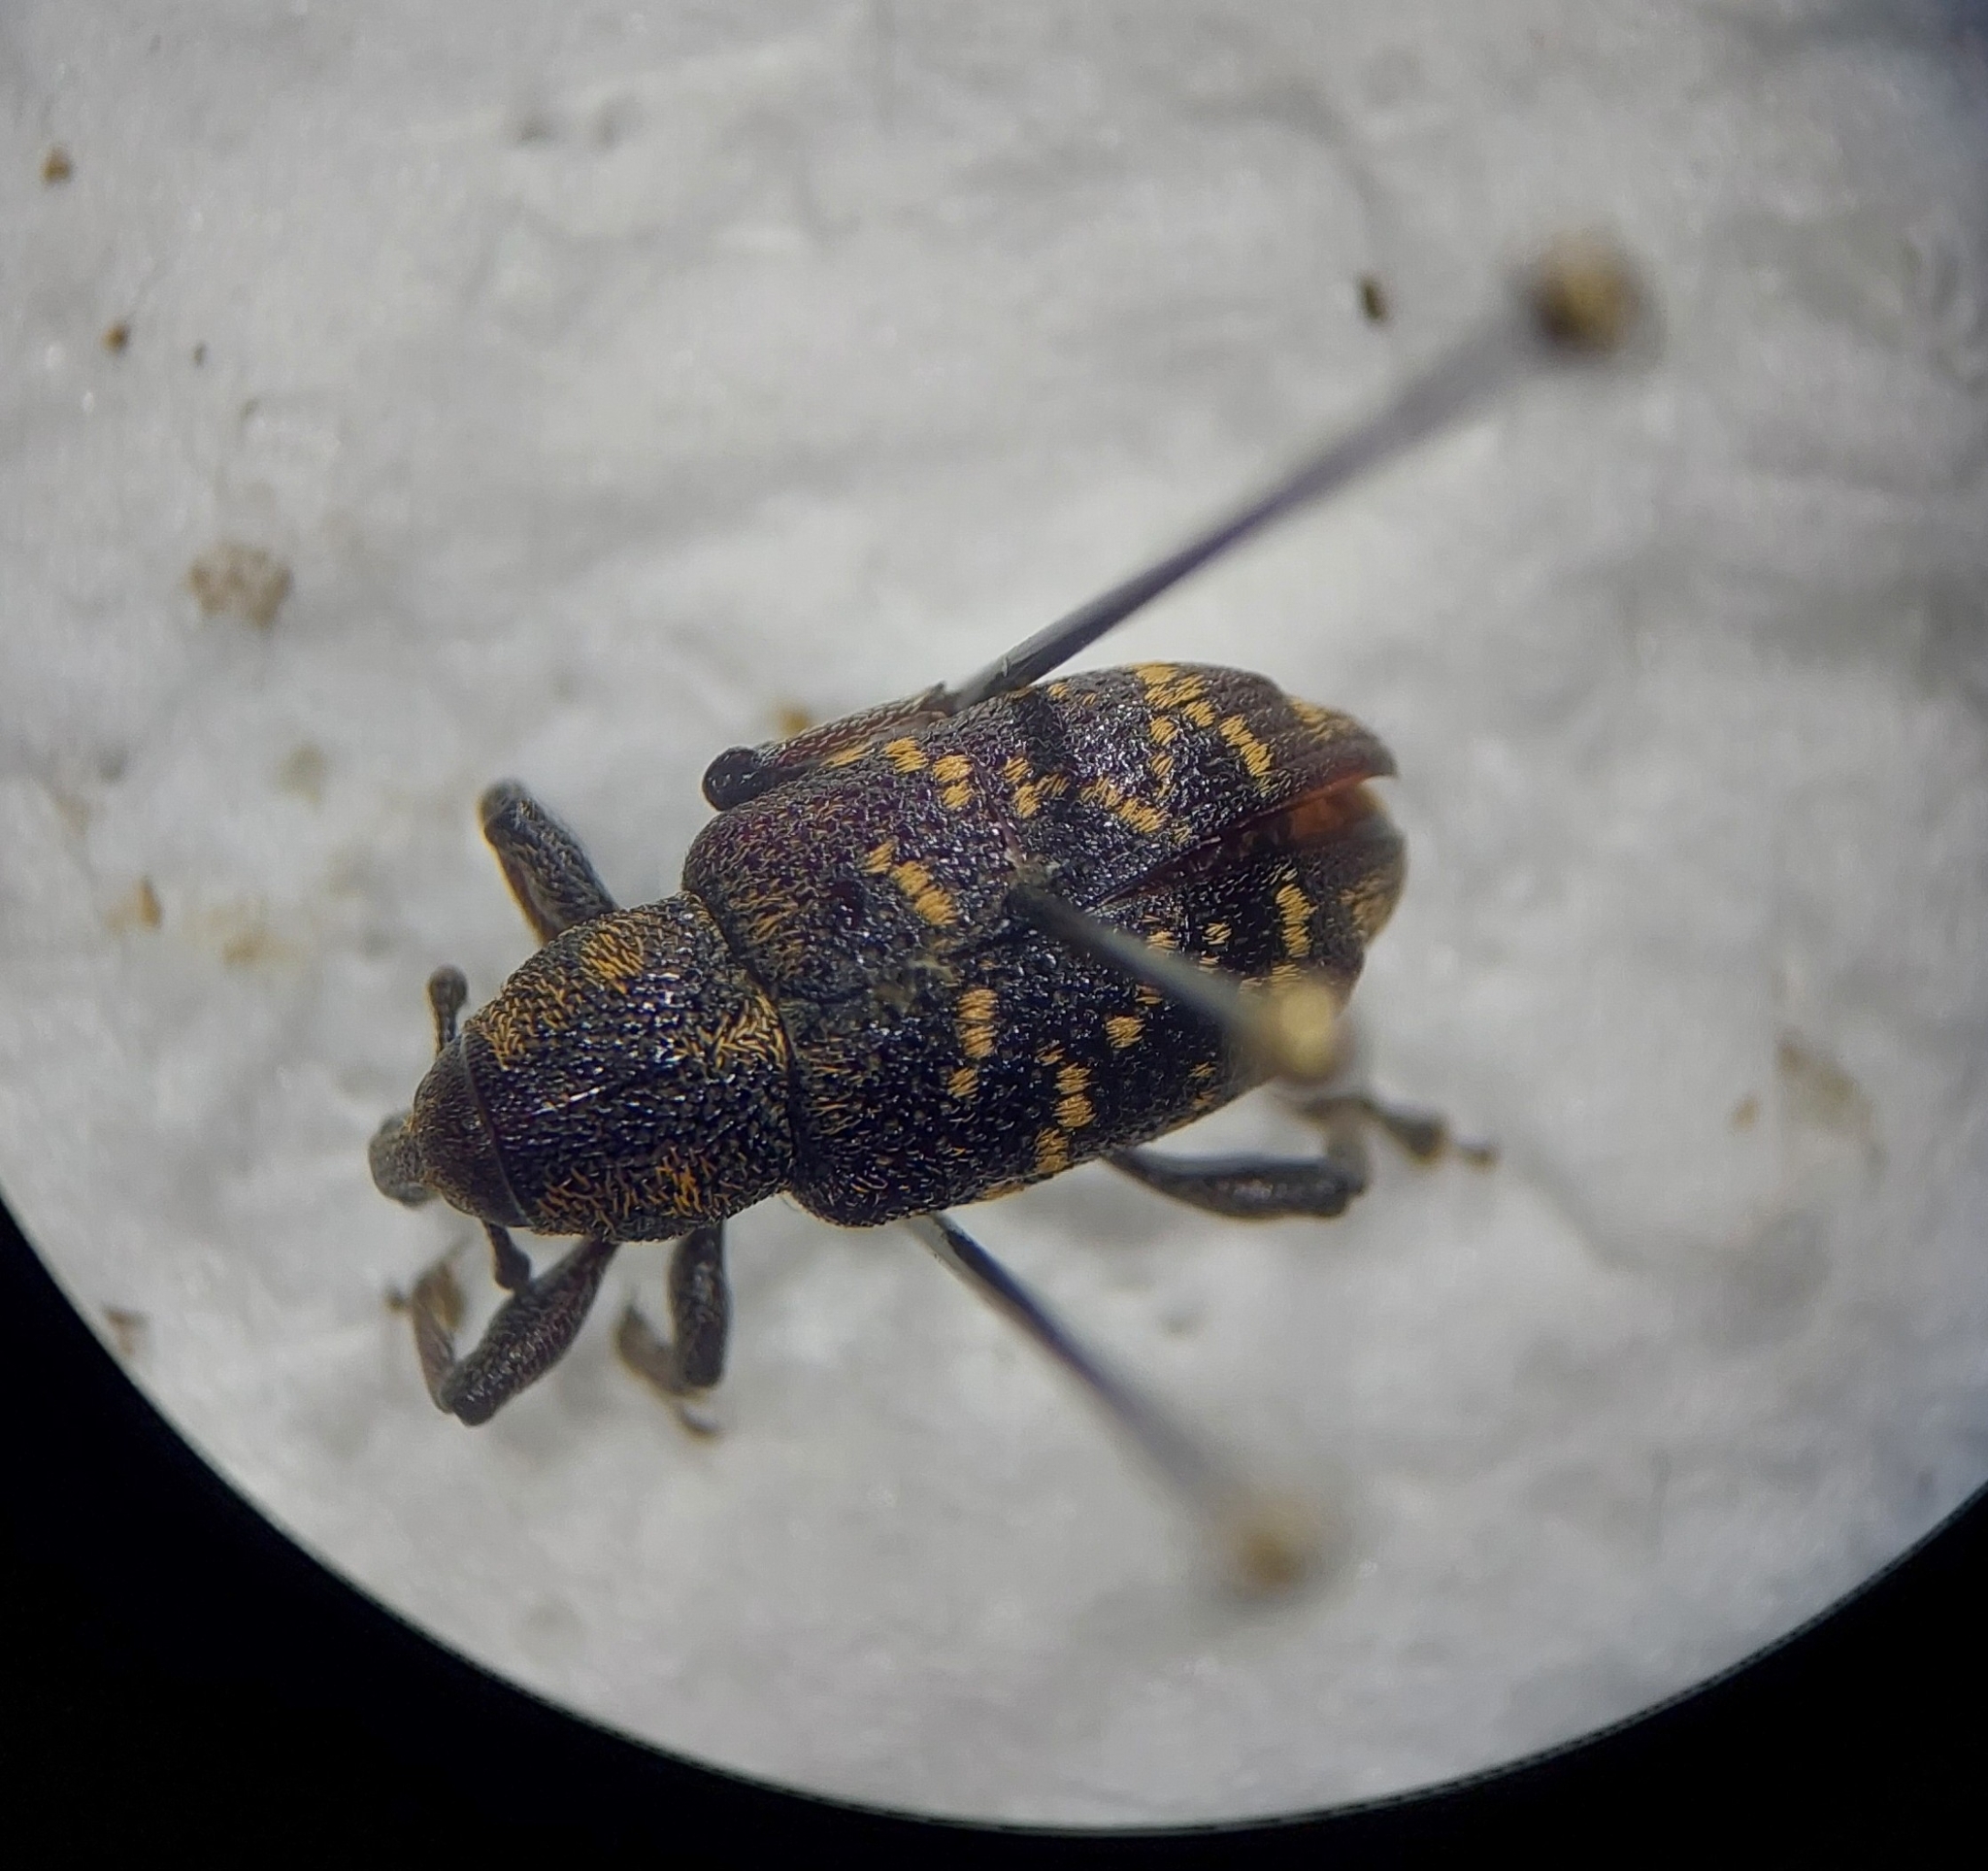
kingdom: Animalia
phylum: Arthropoda
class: Insecta
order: Coleoptera
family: Curculionidae
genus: Hylobius
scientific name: Hylobius abietis
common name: Large pine weevil
